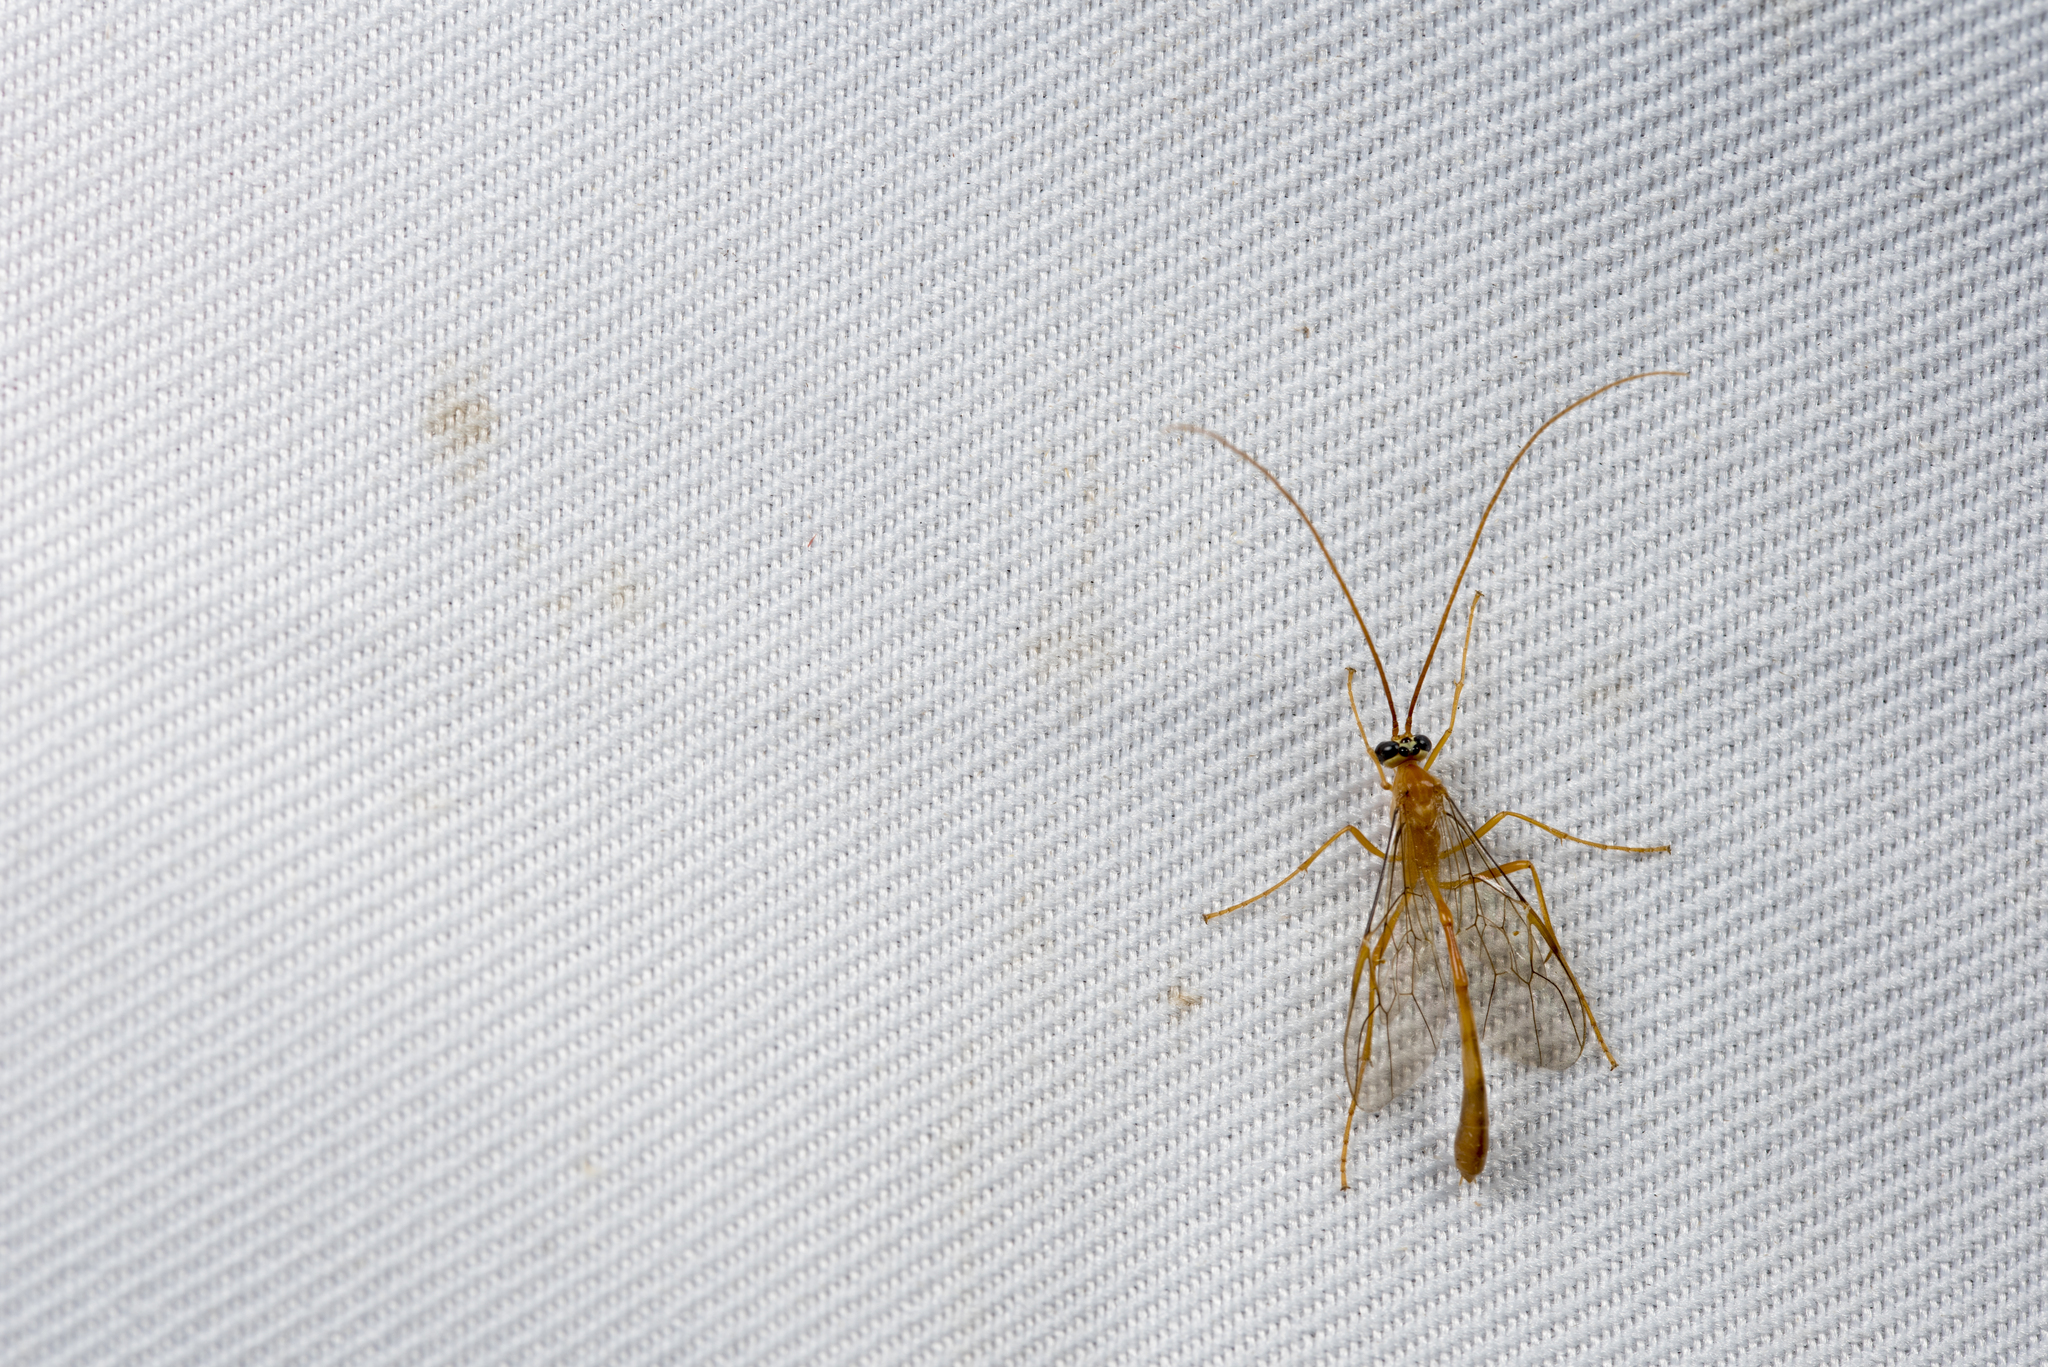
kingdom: Animalia
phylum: Arthropoda
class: Insecta
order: Hymenoptera
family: Ichneumonidae
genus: Enicospilus
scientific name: Enicospilus dasychirae
